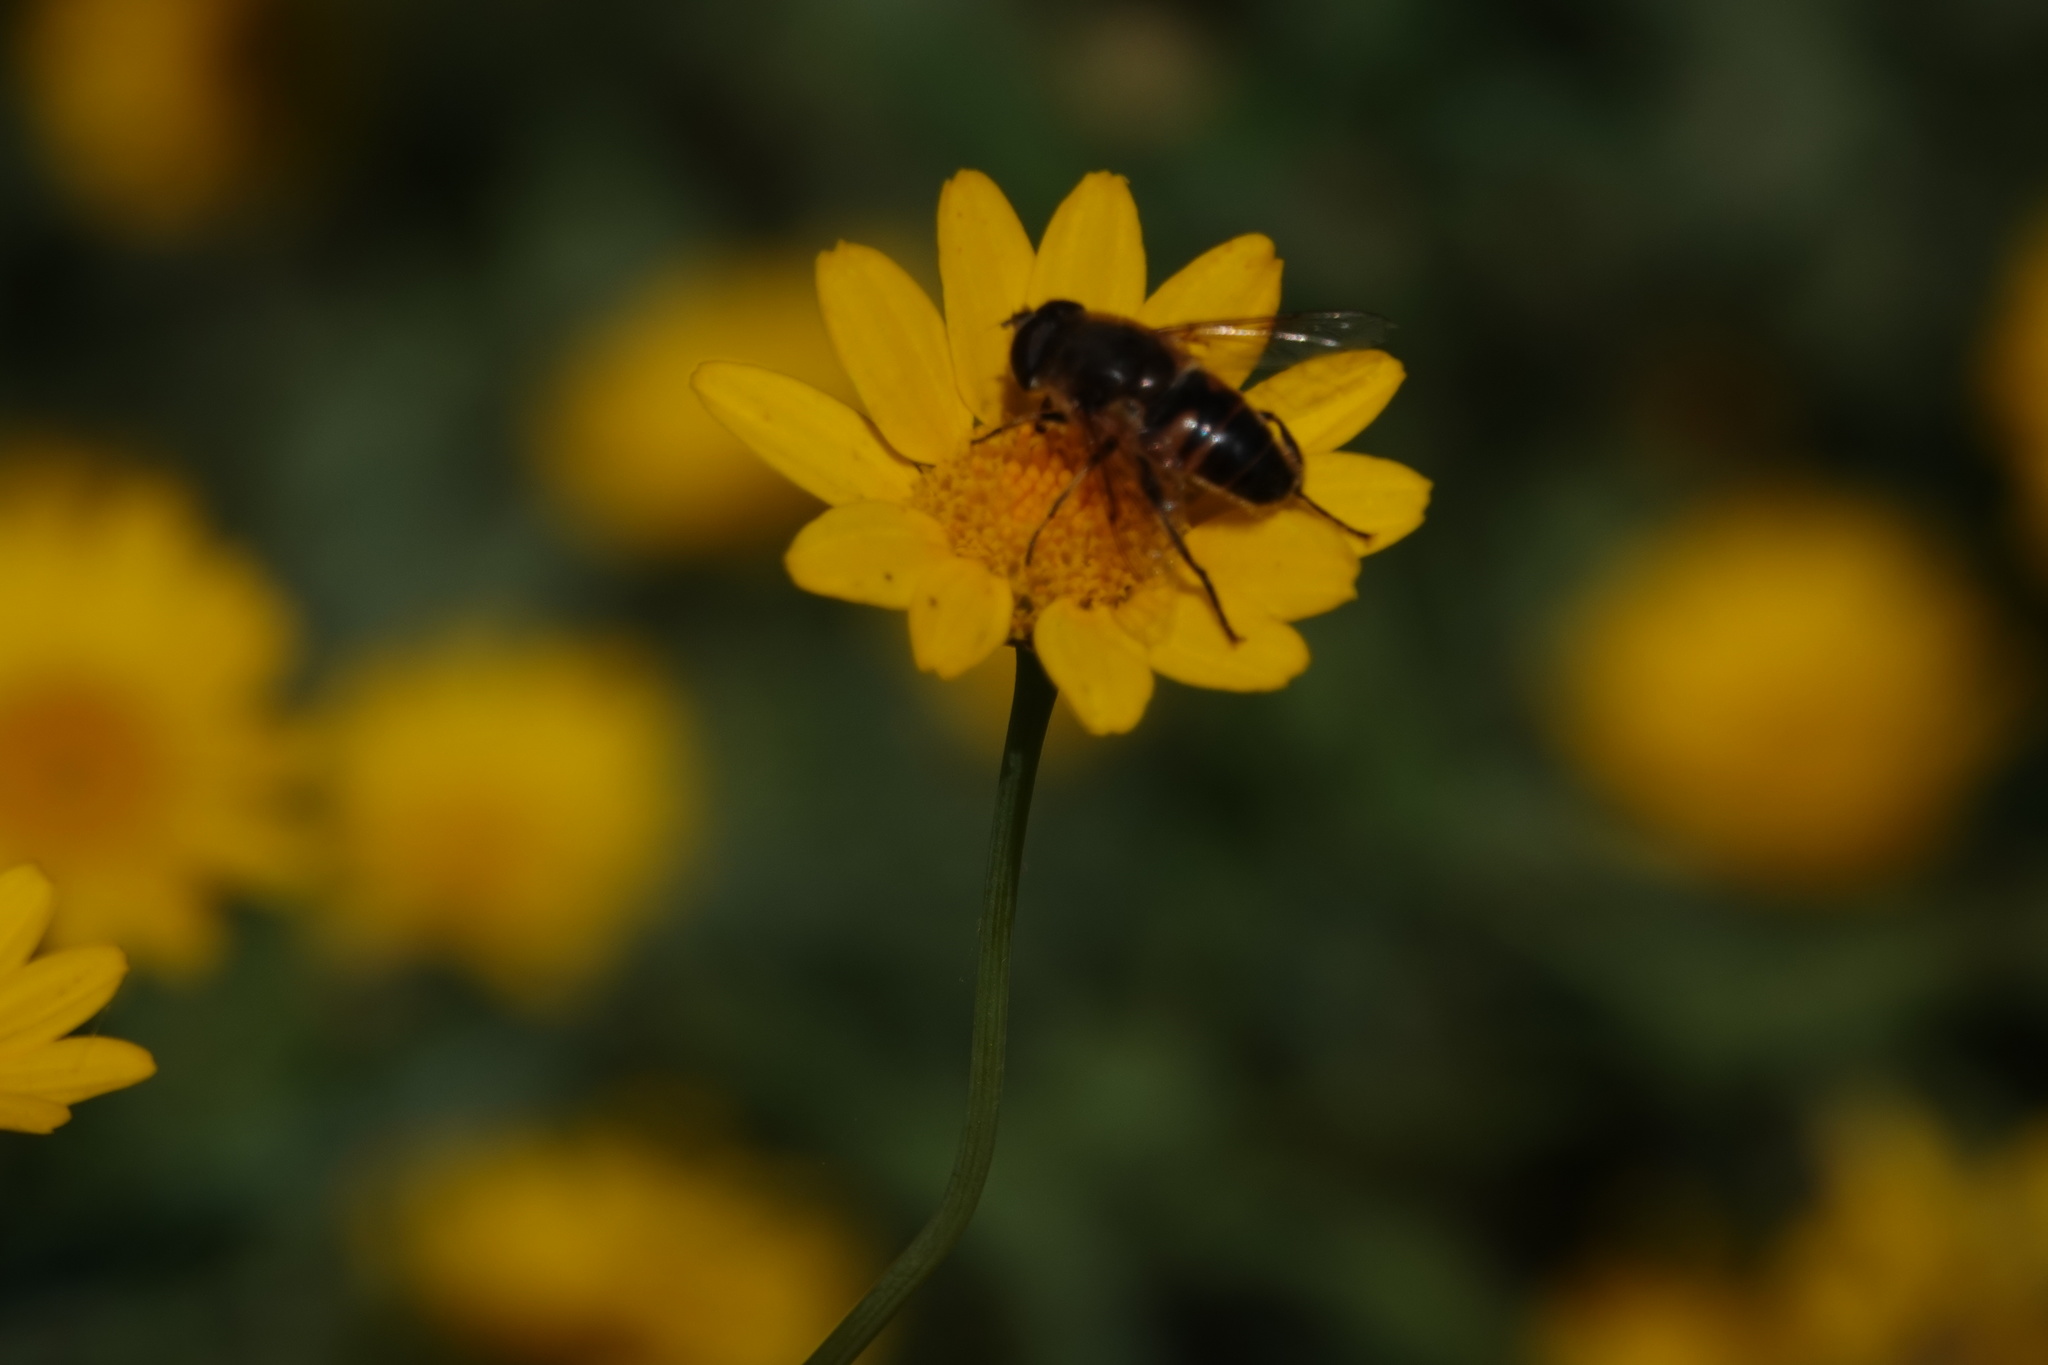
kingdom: Animalia
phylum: Arthropoda
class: Insecta
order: Diptera
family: Syrphidae
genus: Eristalis
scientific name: Eristalis tenax
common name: Drone fly
